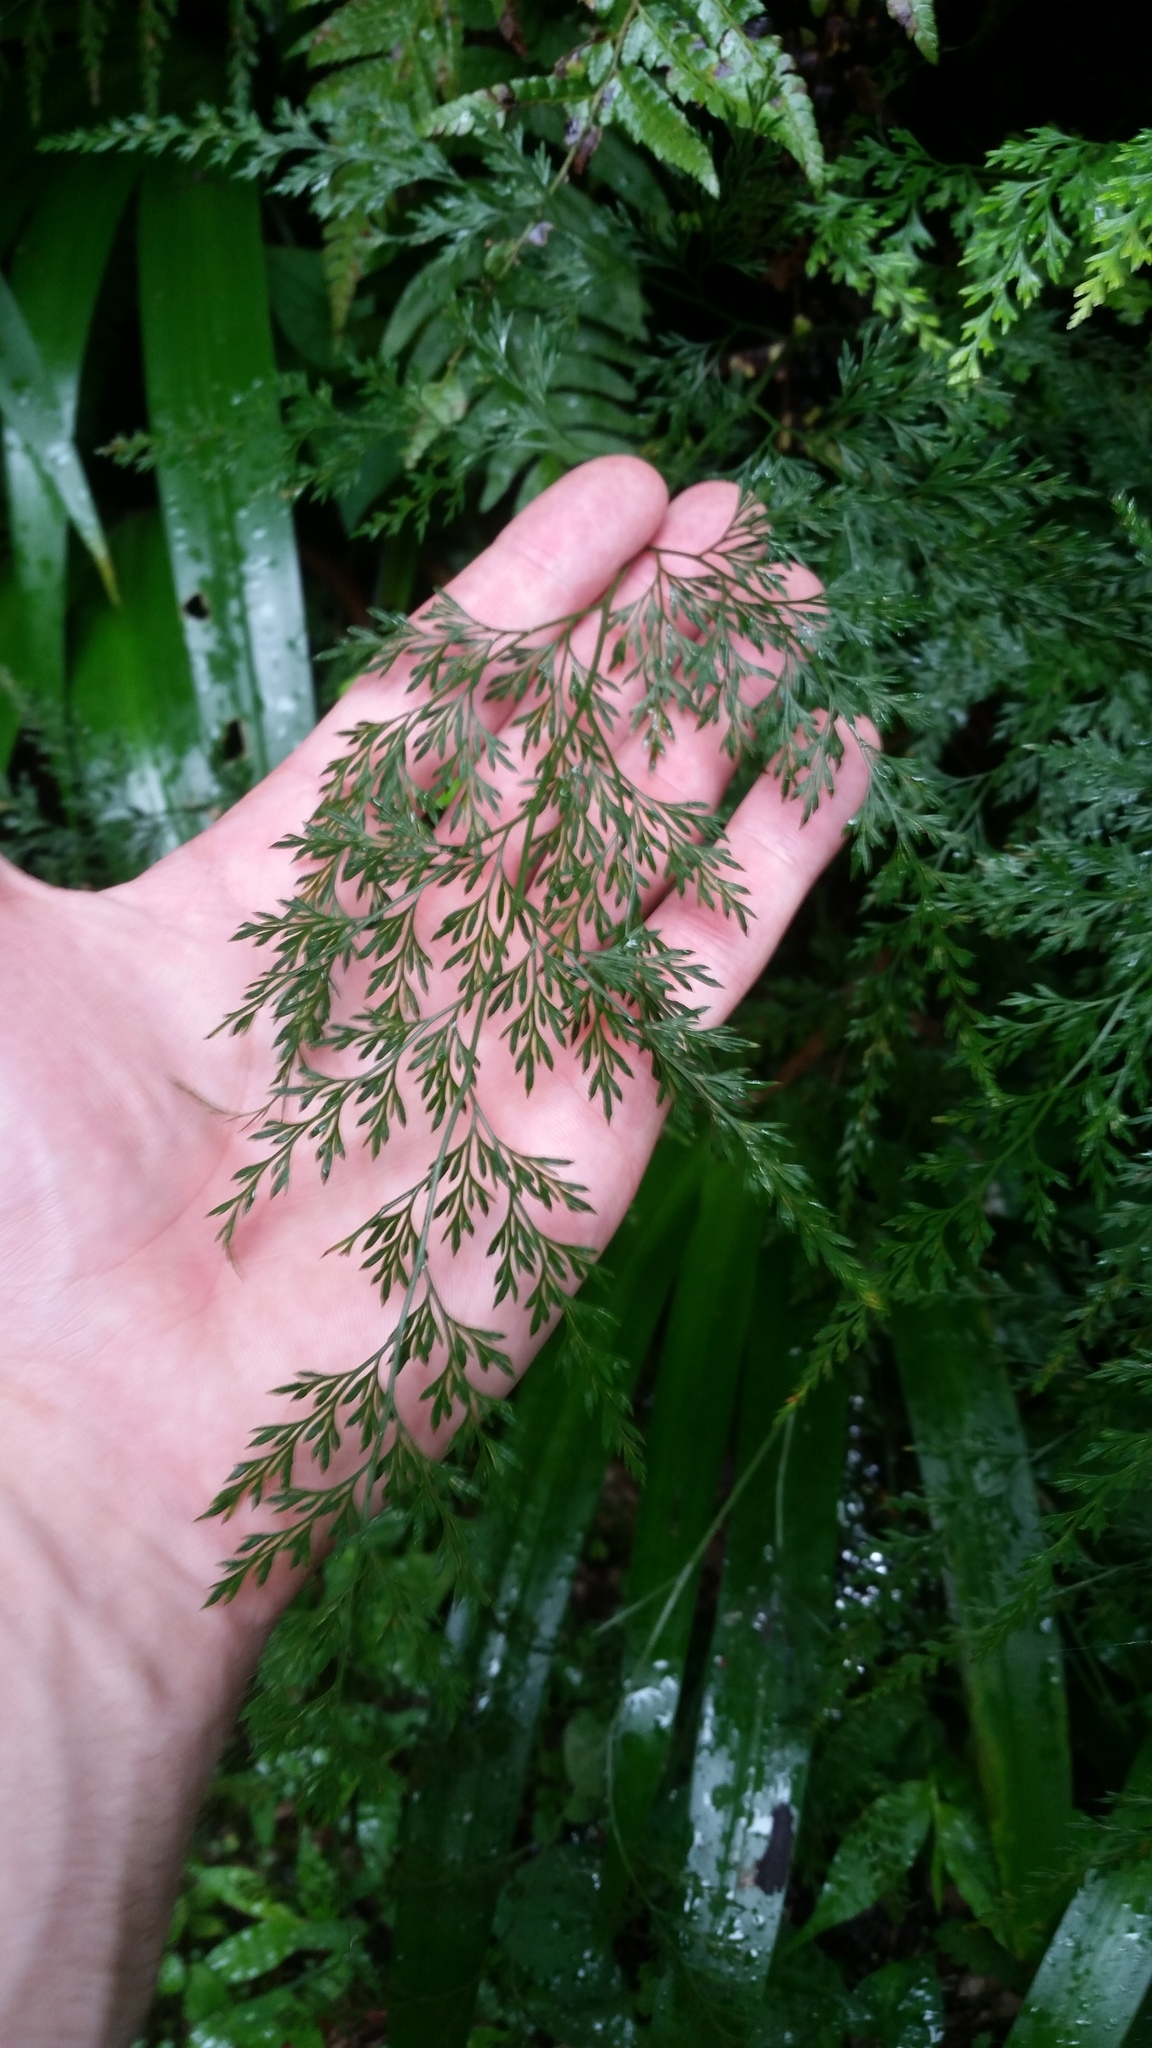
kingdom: Plantae
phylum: Tracheophyta
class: Polypodiopsida
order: Polypodiales
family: Pteridaceae
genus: Onychium
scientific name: Onychium japonicum
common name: Carrot fern
